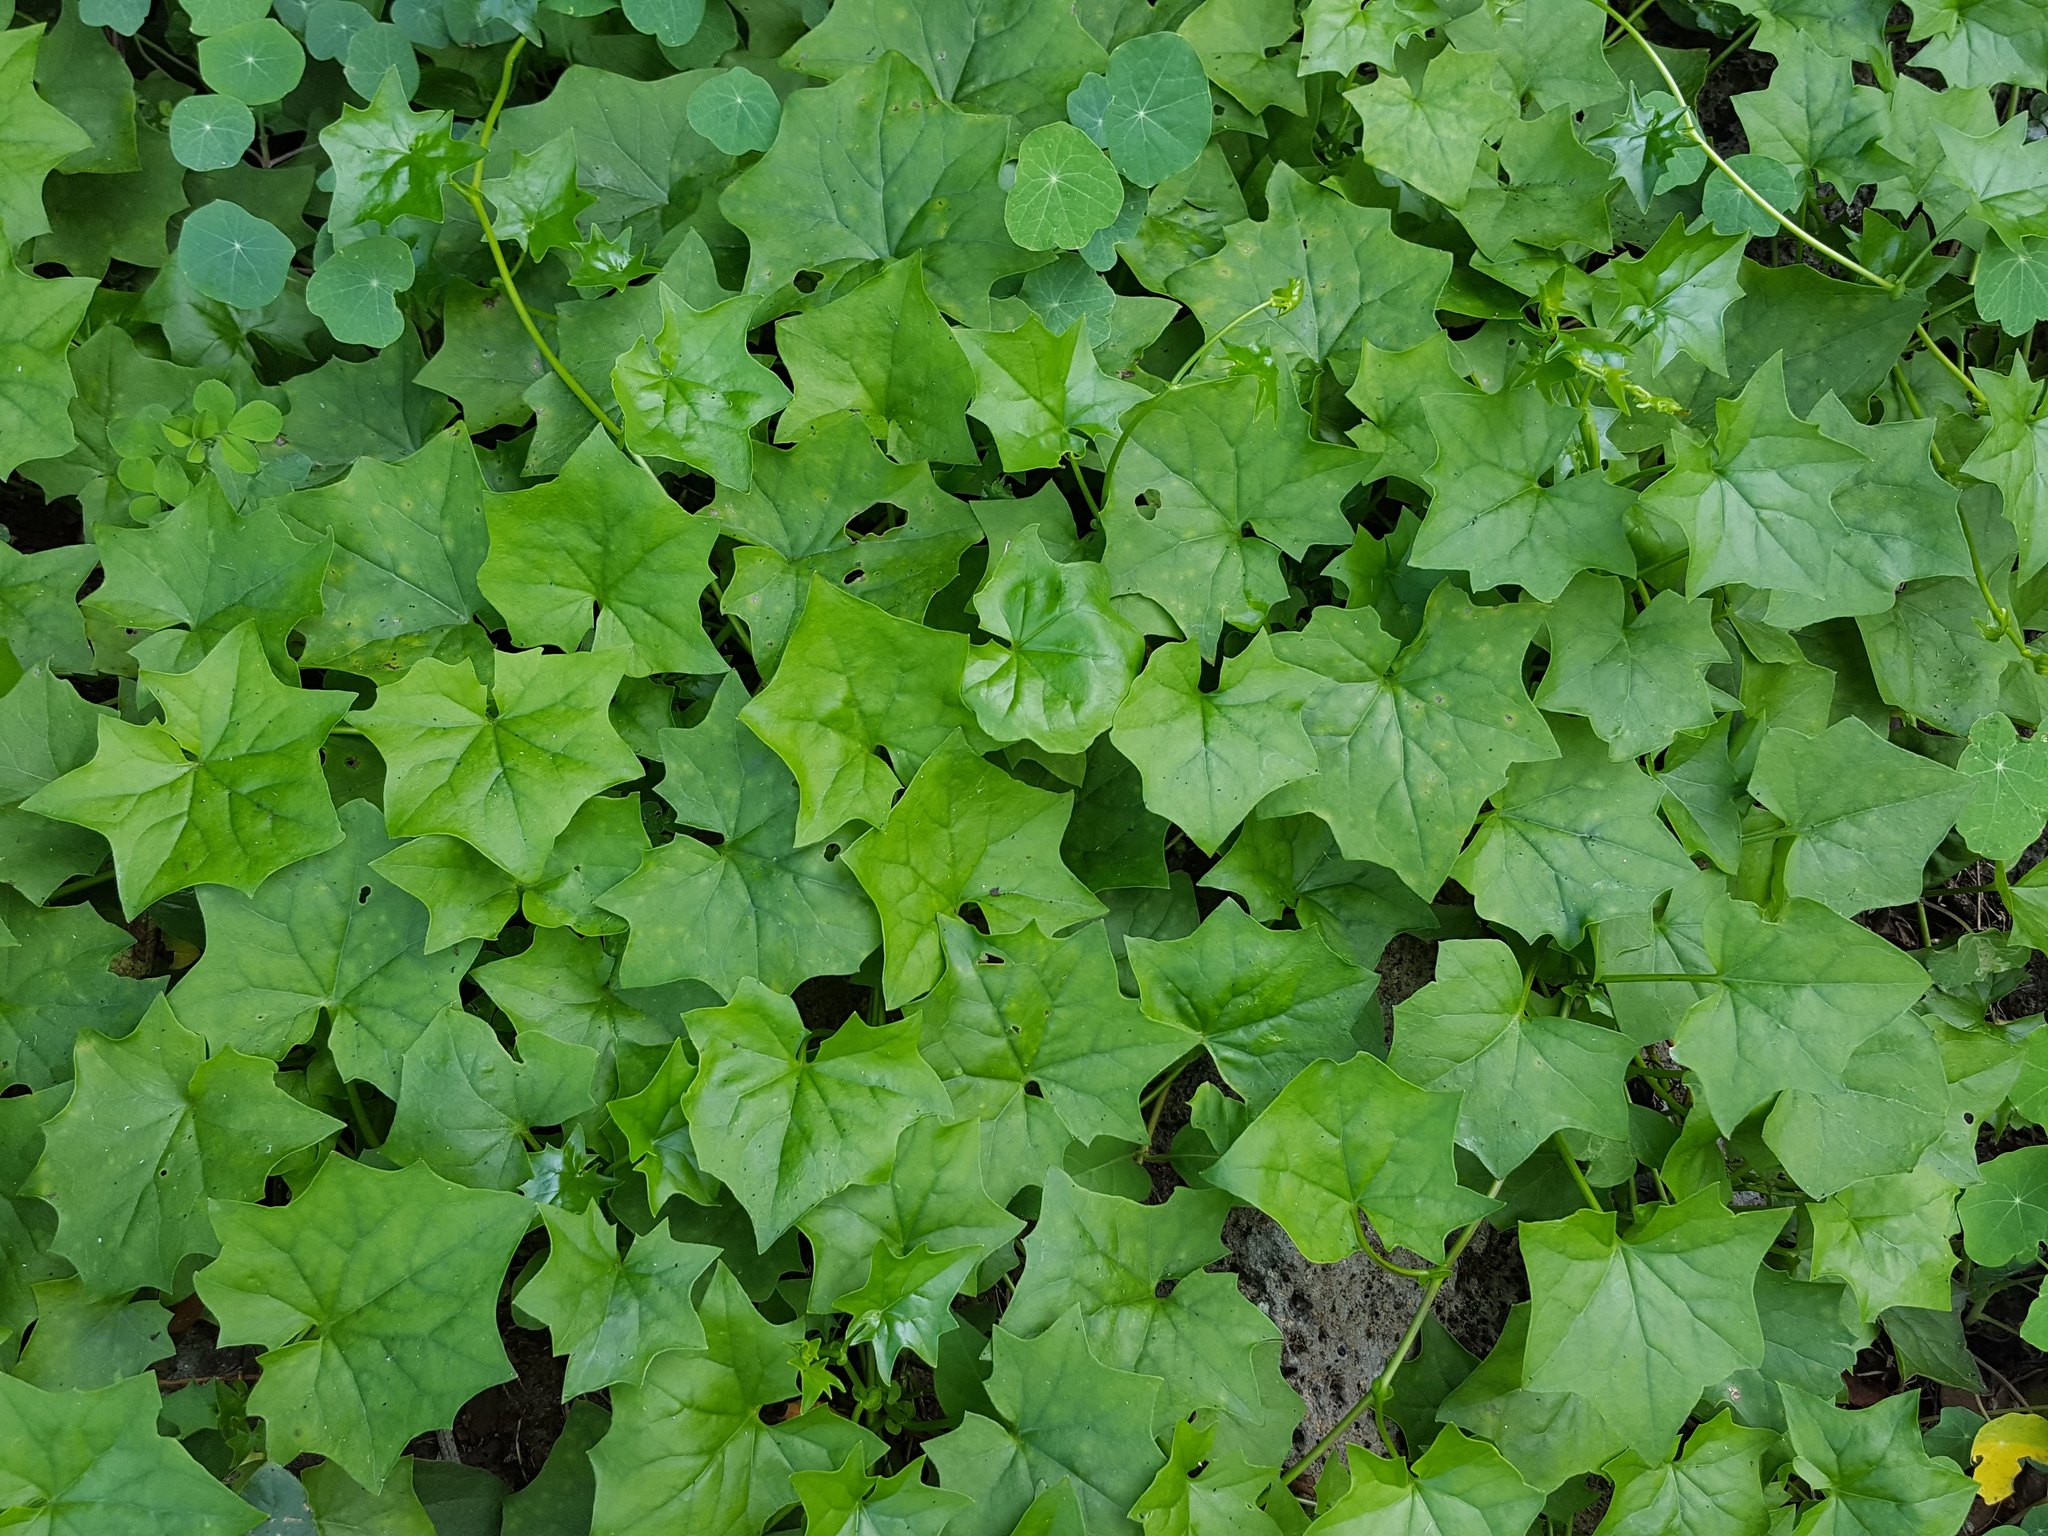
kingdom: Plantae
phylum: Tracheophyta
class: Magnoliopsida
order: Asterales
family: Asteraceae
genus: Delairea
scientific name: Delairea odorata
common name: Cape-ivy
